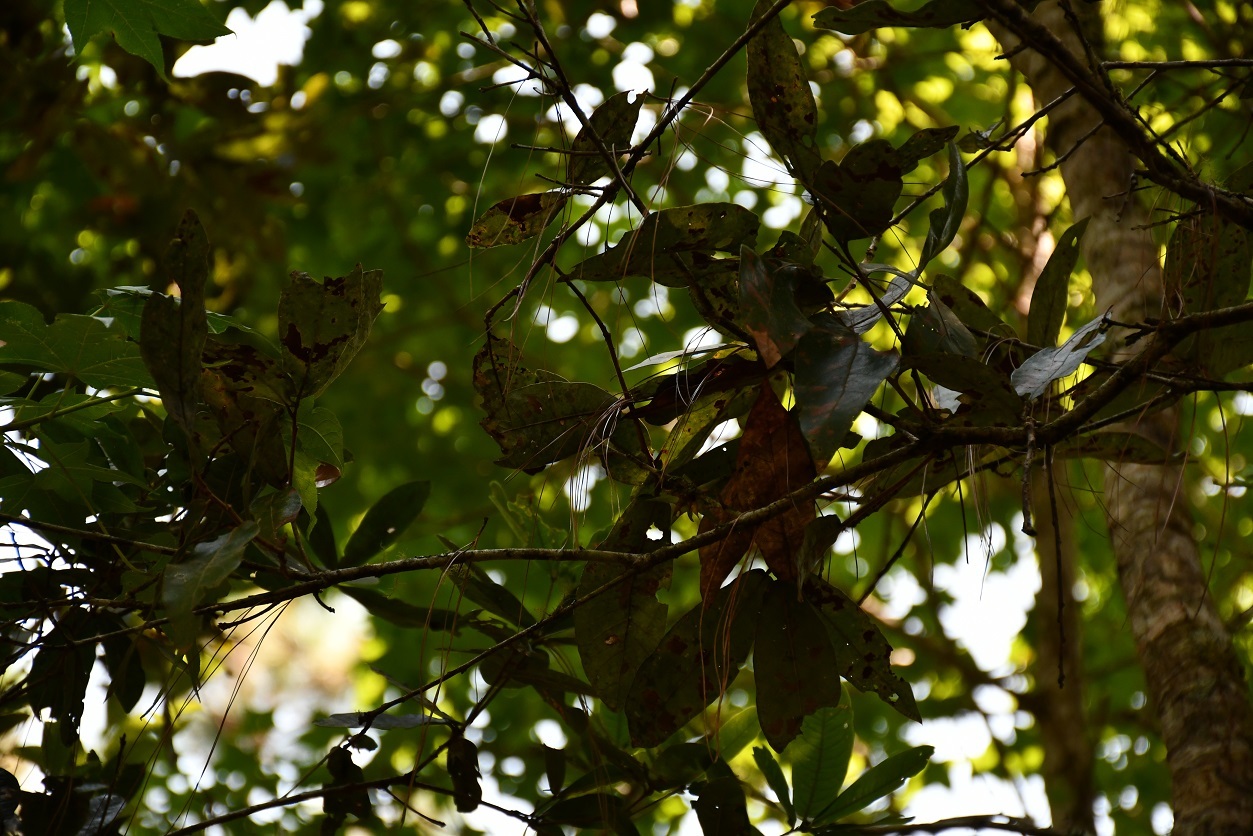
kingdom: Plantae
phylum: Tracheophyta
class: Magnoliopsida
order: Fagales
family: Fagaceae
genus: Quercus
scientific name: Quercus crispifolia
